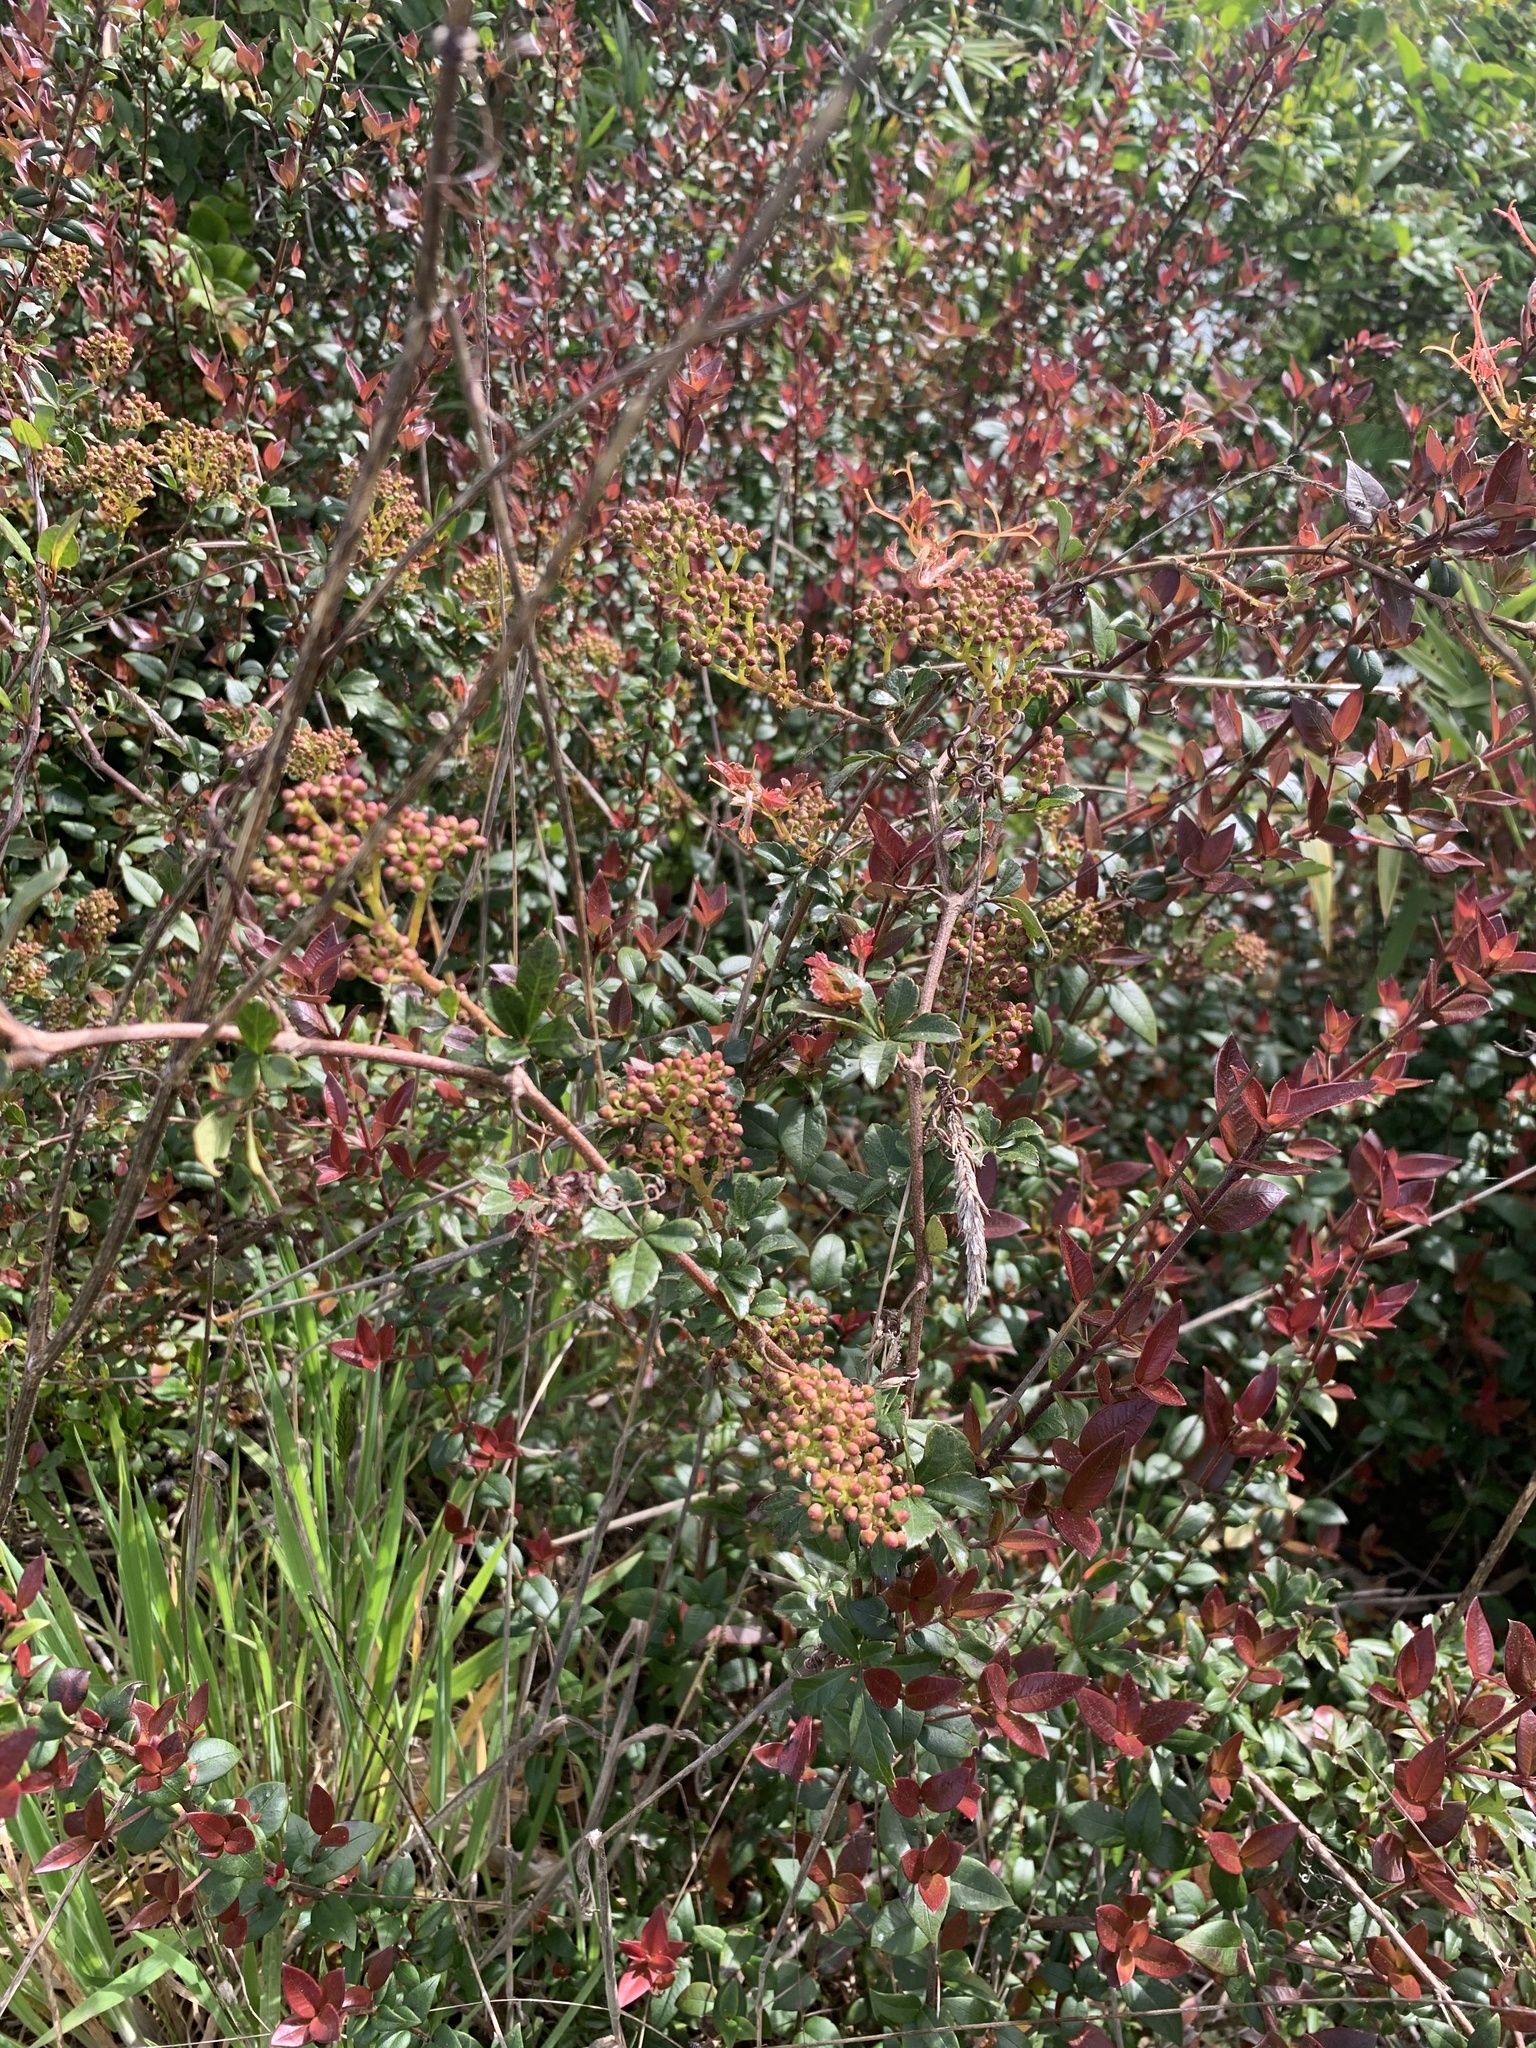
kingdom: Plantae
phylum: Tracheophyta
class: Magnoliopsida
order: Vitales
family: Vitaceae
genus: Clematicissus
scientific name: Clematicissus striata
